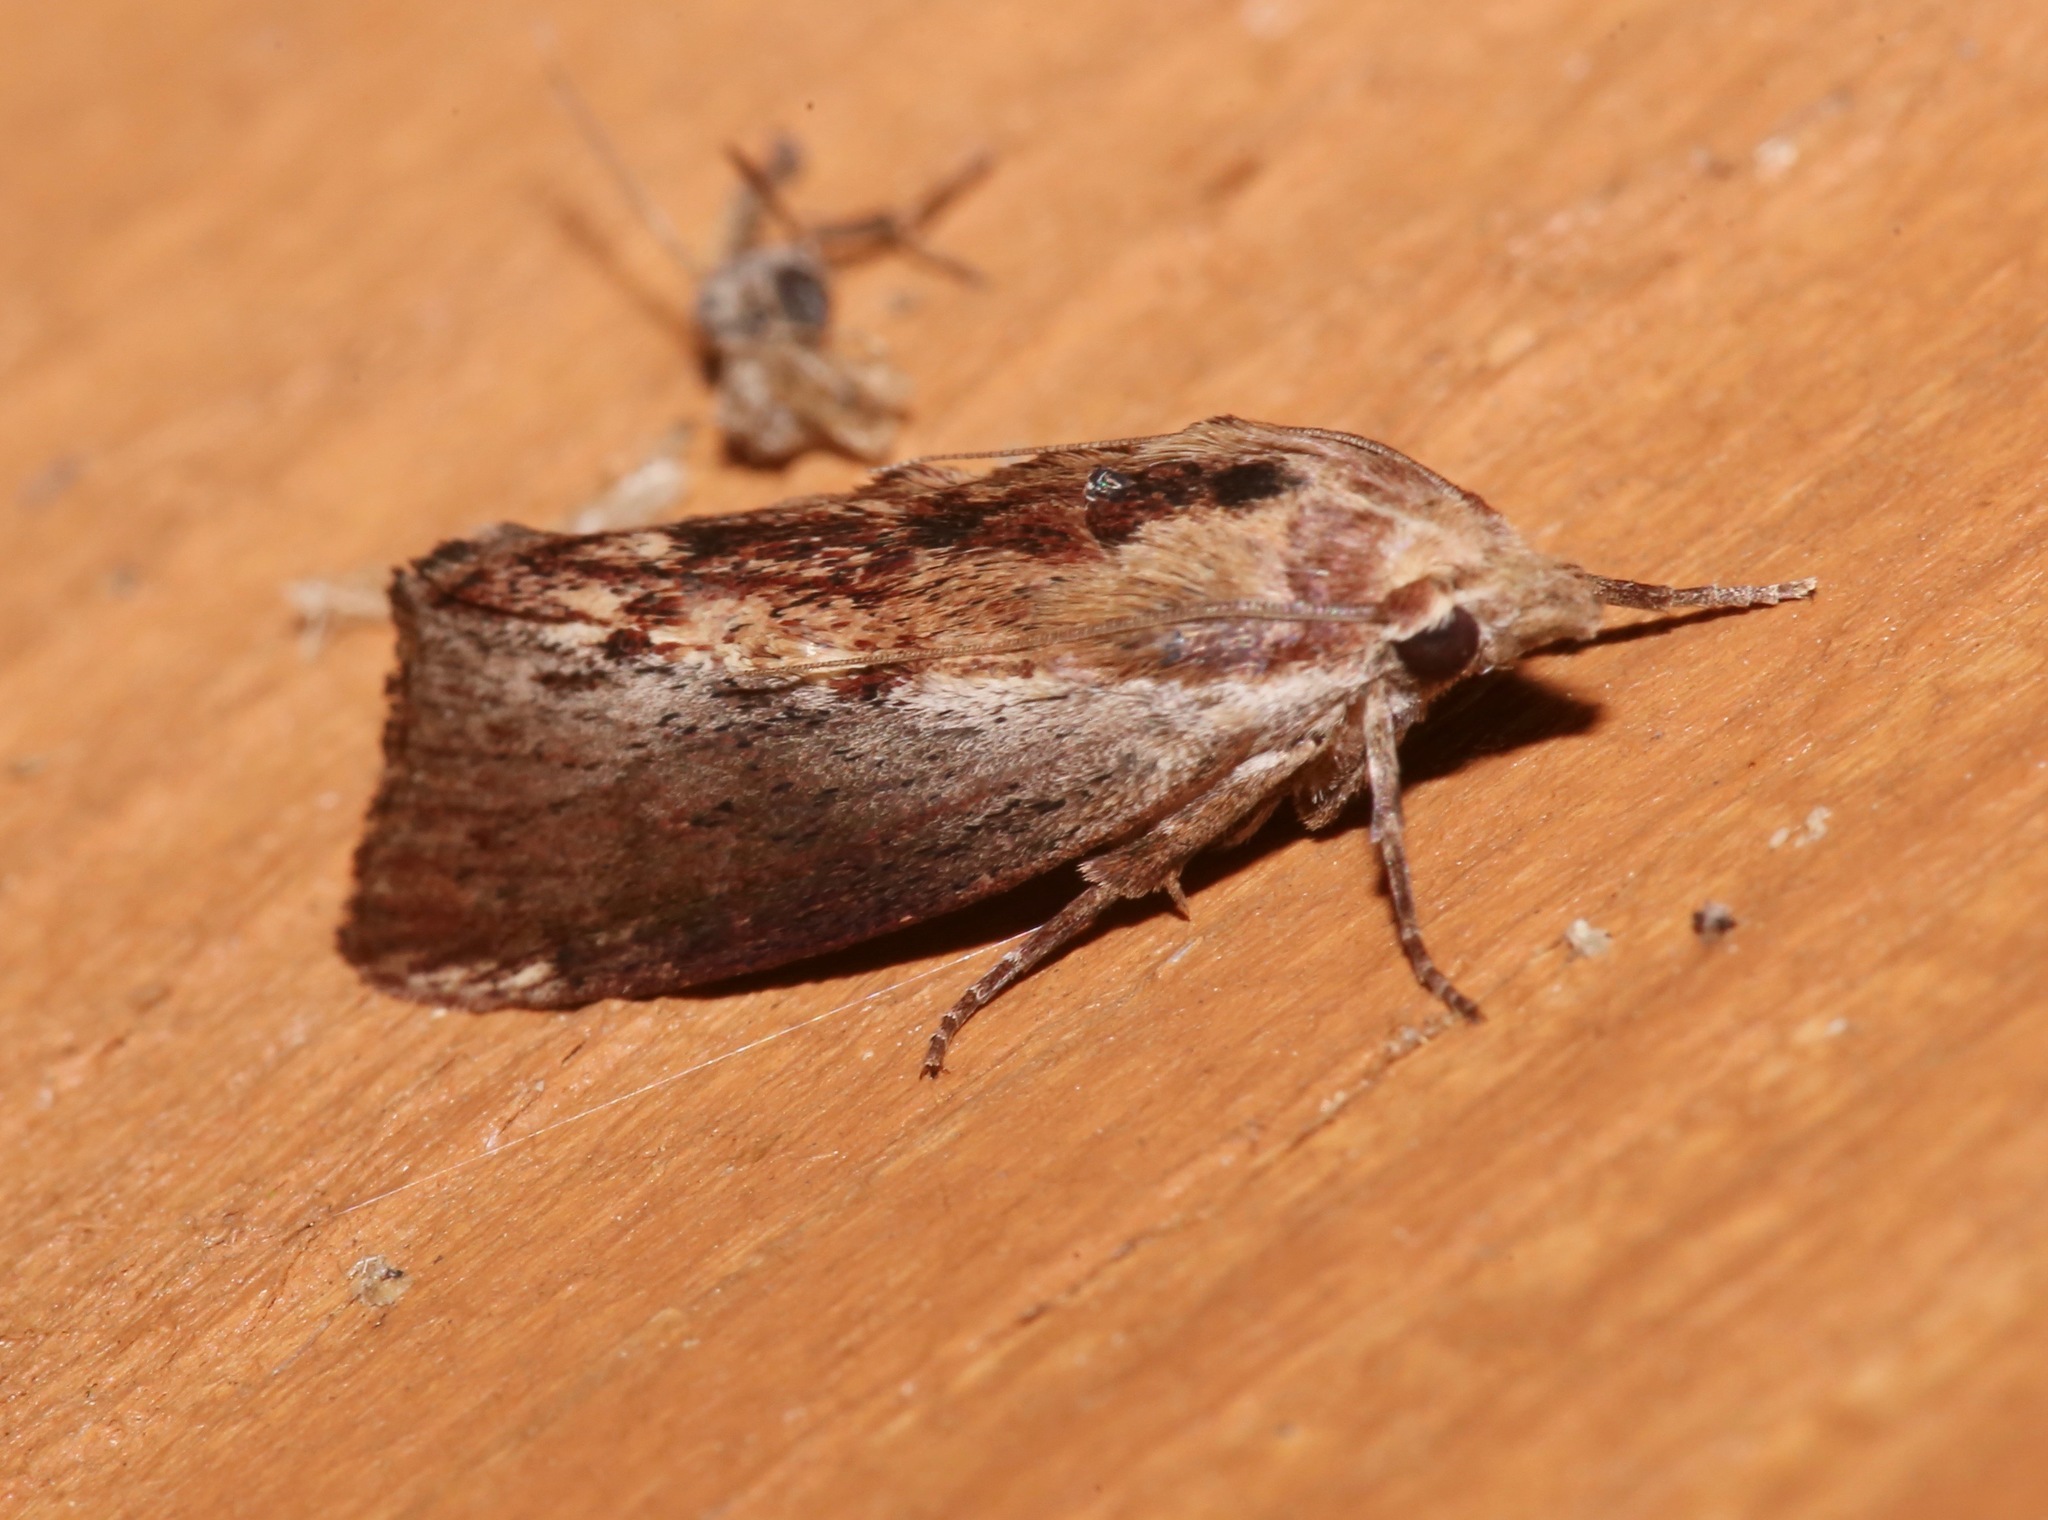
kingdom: Animalia
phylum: Arthropoda
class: Insecta
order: Lepidoptera
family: Pyralidae
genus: Galleria
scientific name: Galleria mellonella
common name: Greater wax moth
